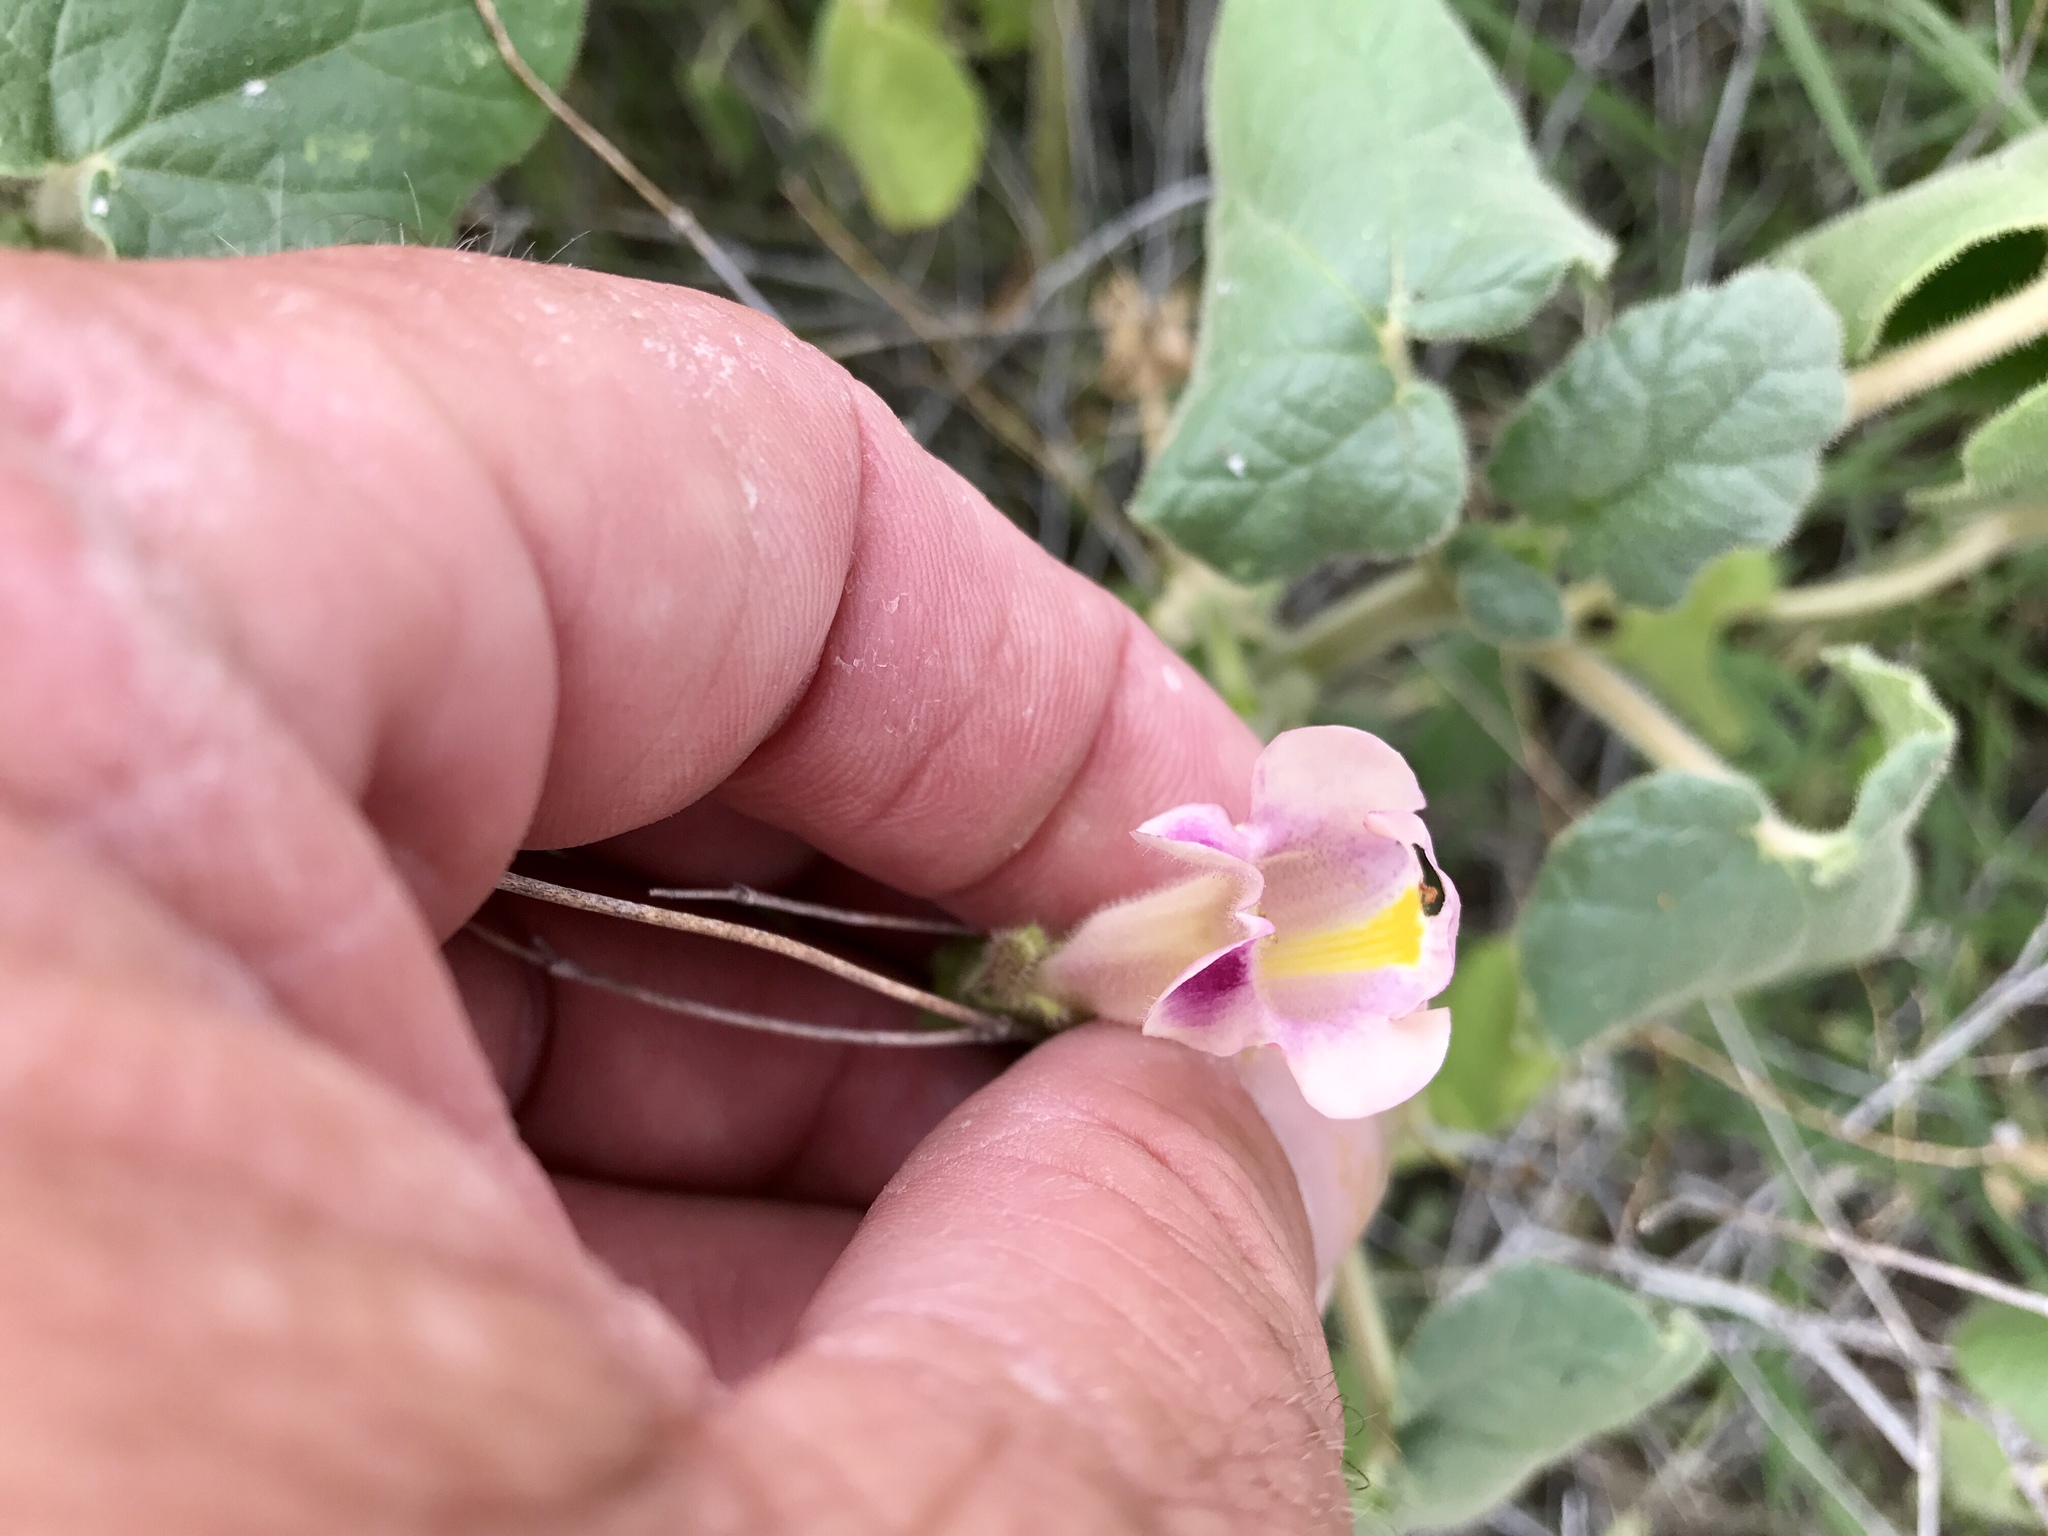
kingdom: Plantae
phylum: Tracheophyta
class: Magnoliopsida
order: Lamiales
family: Martyniaceae
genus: Proboscidea
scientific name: Proboscidea parviflora
